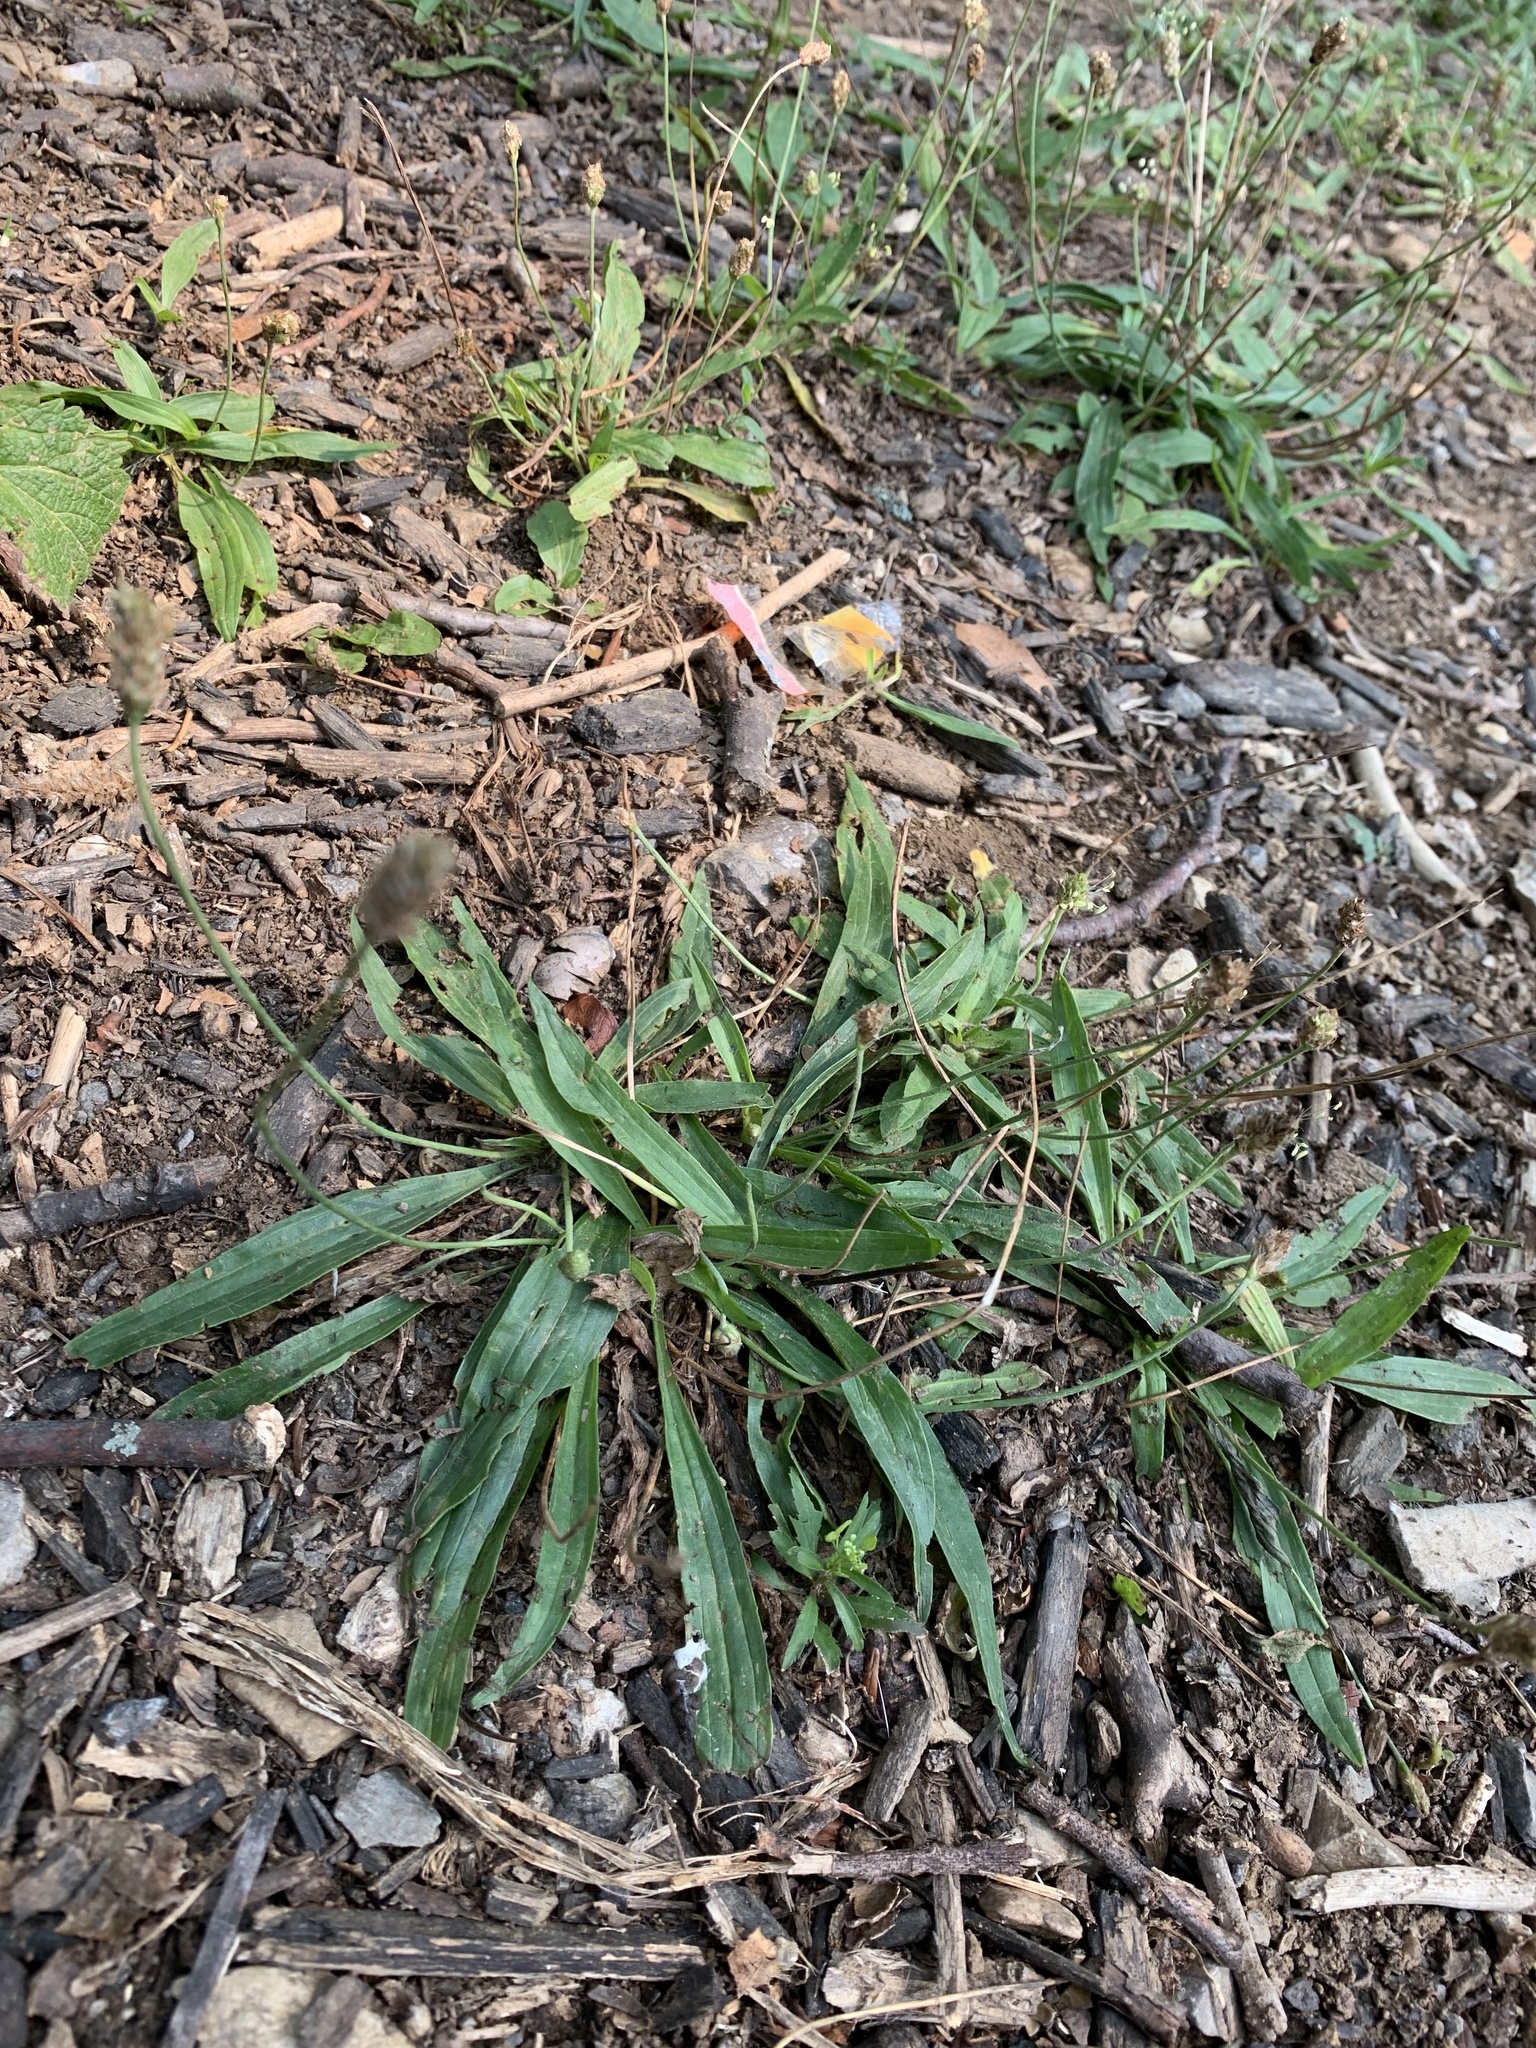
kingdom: Plantae
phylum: Tracheophyta
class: Magnoliopsida
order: Lamiales
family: Plantaginaceae
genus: Plantago
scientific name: Plantago lanceolata
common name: Ribwort plantain
